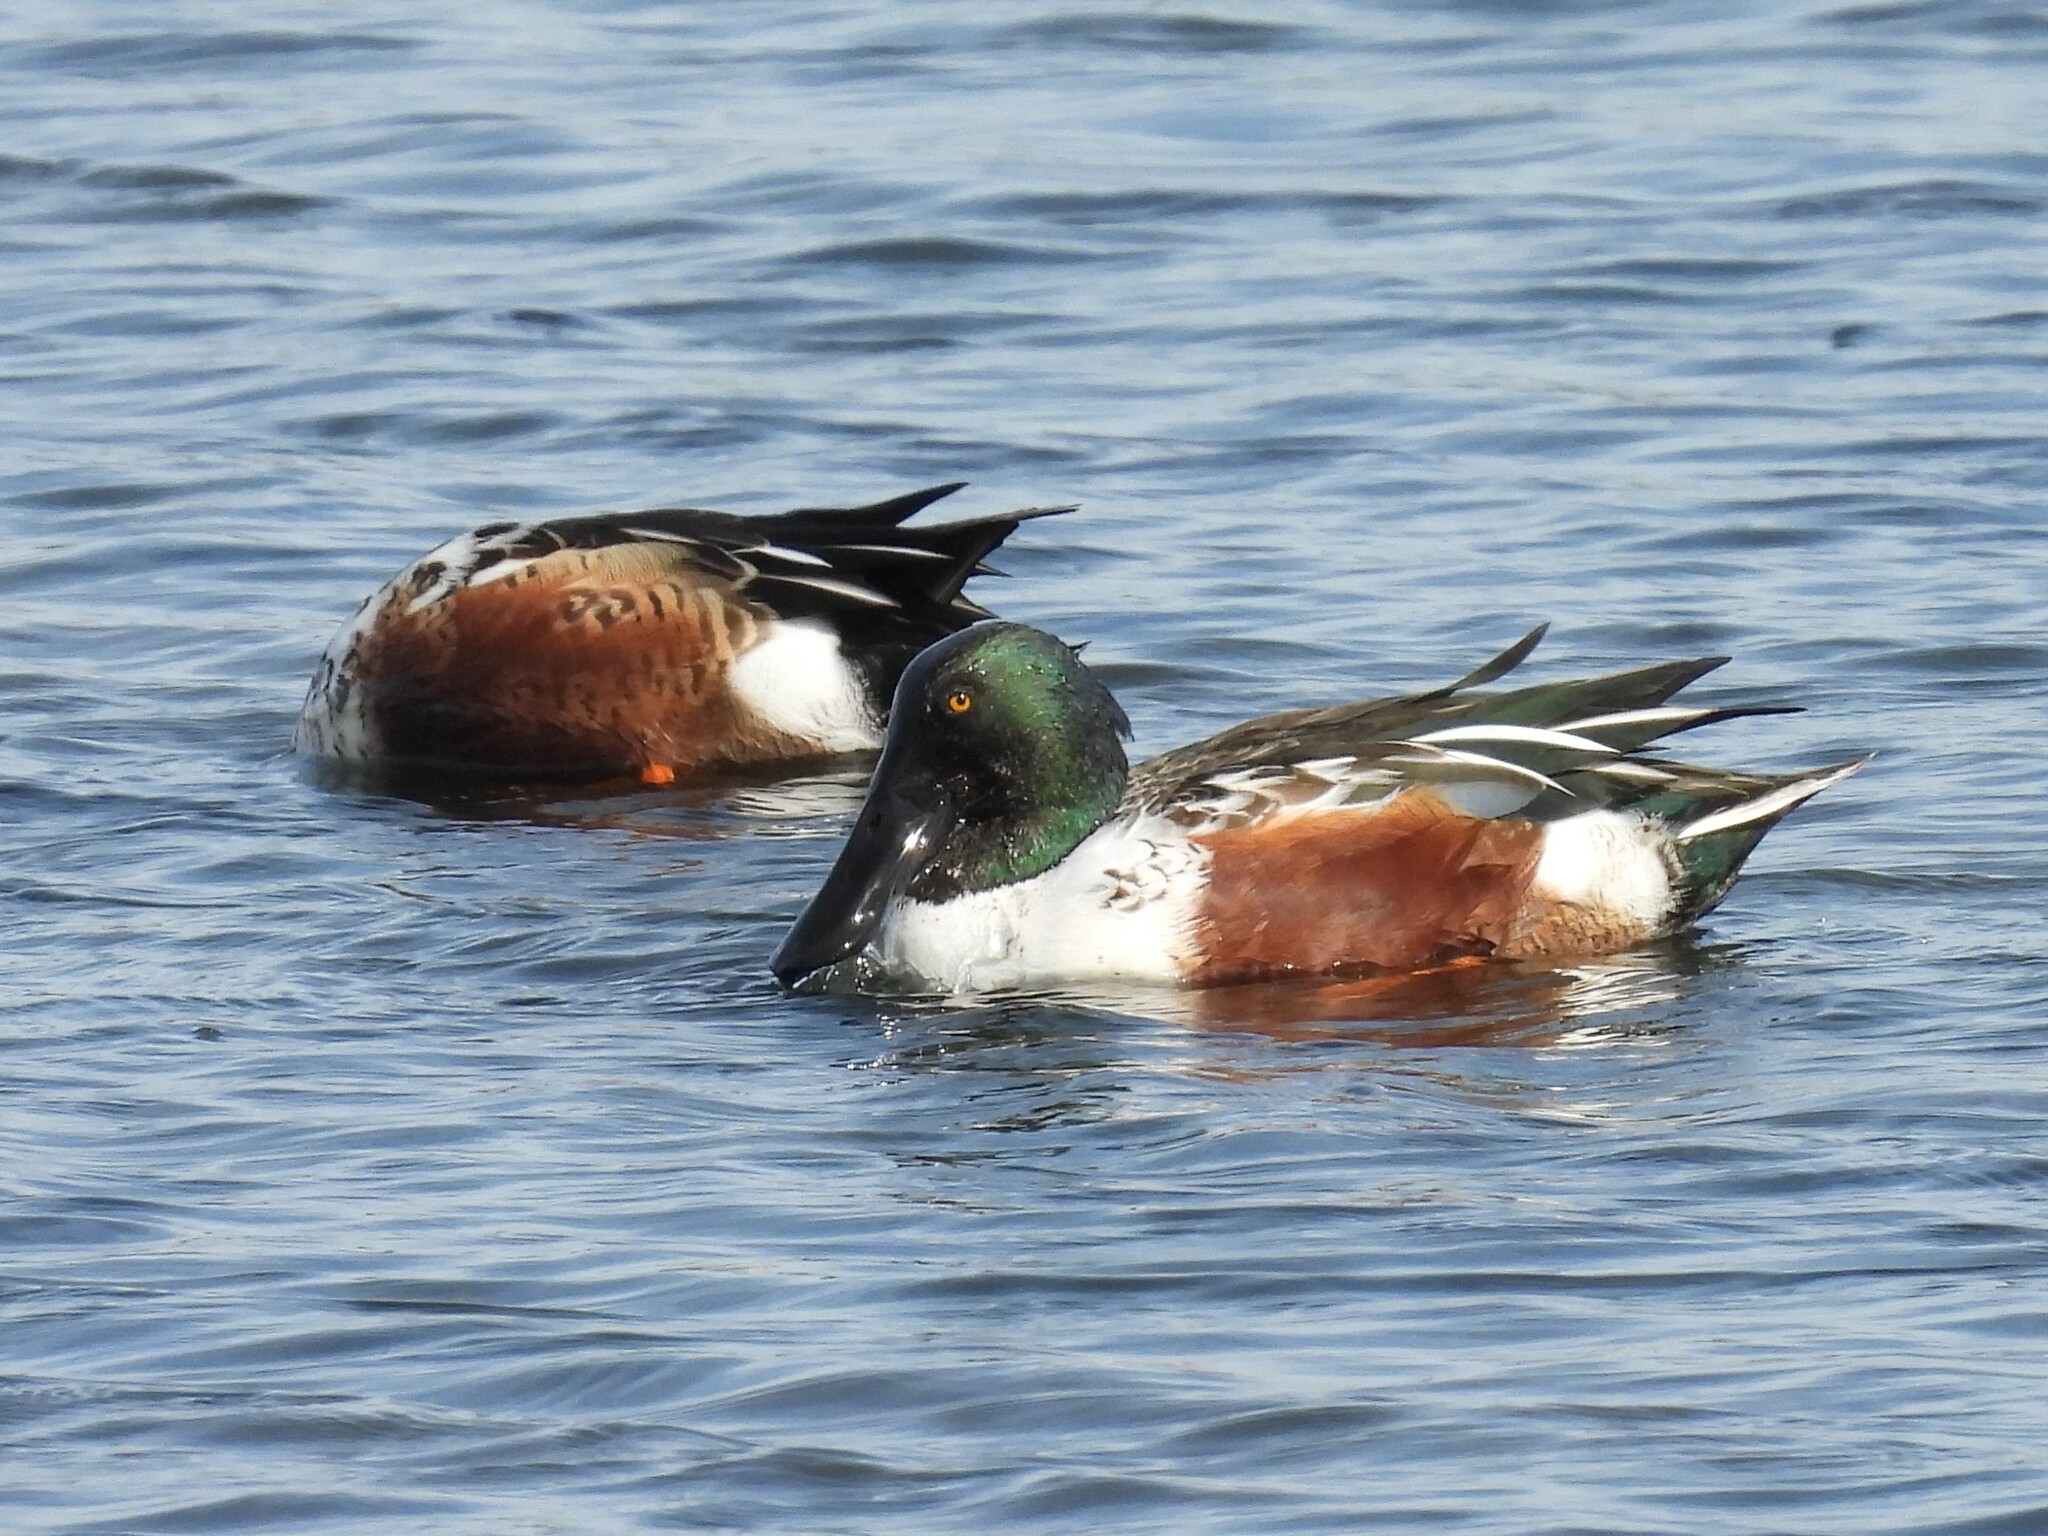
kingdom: Animalia
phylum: Chordata
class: Aves
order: Anseriformes
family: Anatidae
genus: Spatula
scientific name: Spatula clypeata
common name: Northern shoveler
